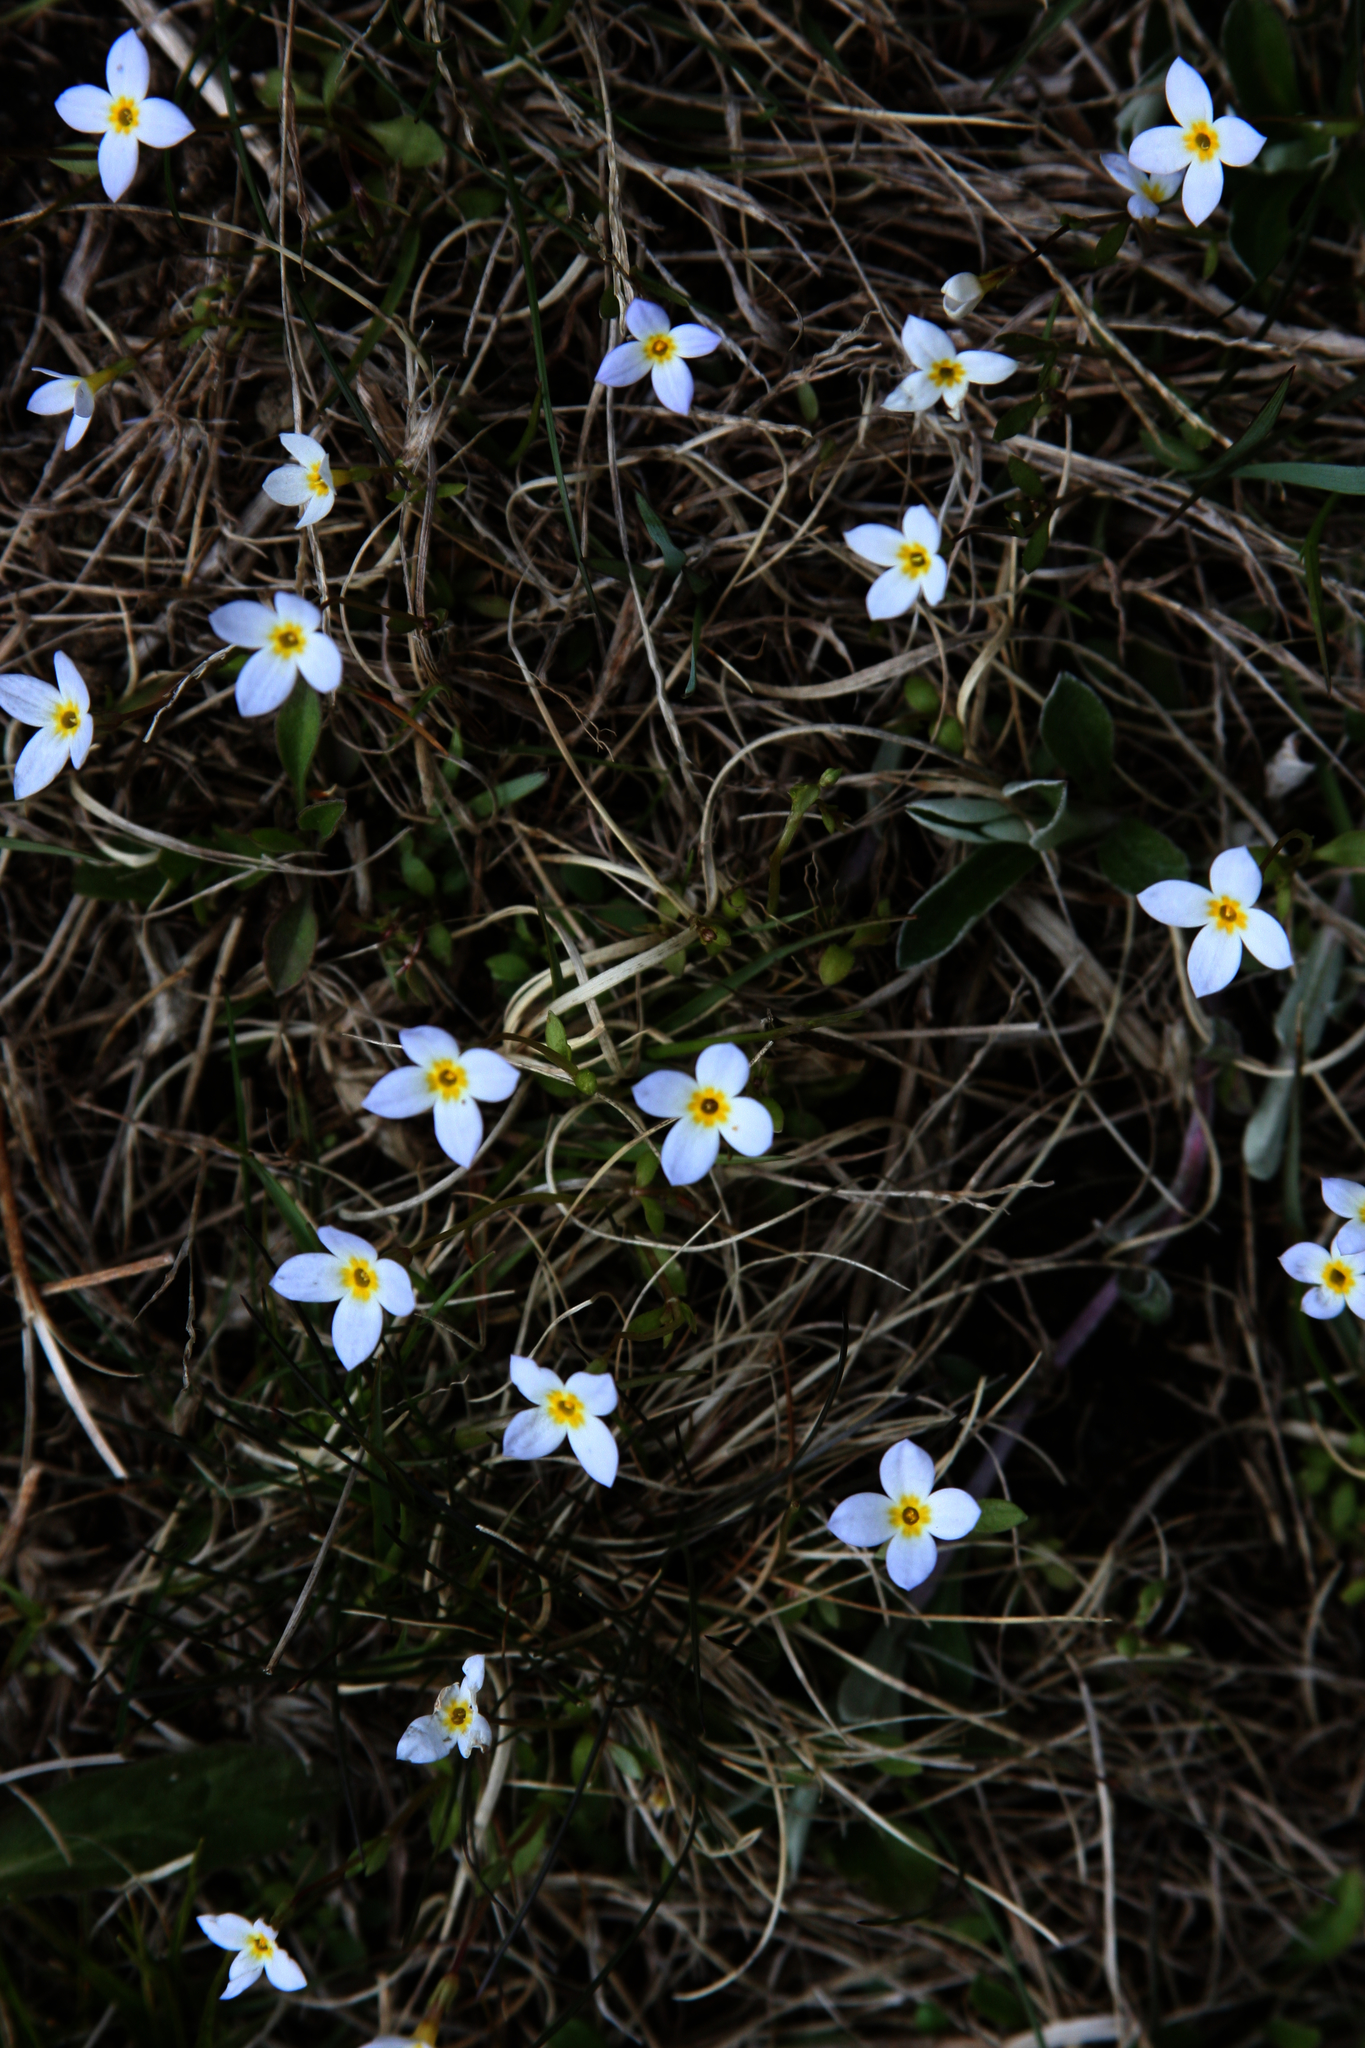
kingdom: Plantae
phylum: Tracheophyta
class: Magnoliopsida
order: Gentianales
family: Rubiaceae
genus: Houstonia
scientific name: Houstonia caerulea
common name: Bluets
